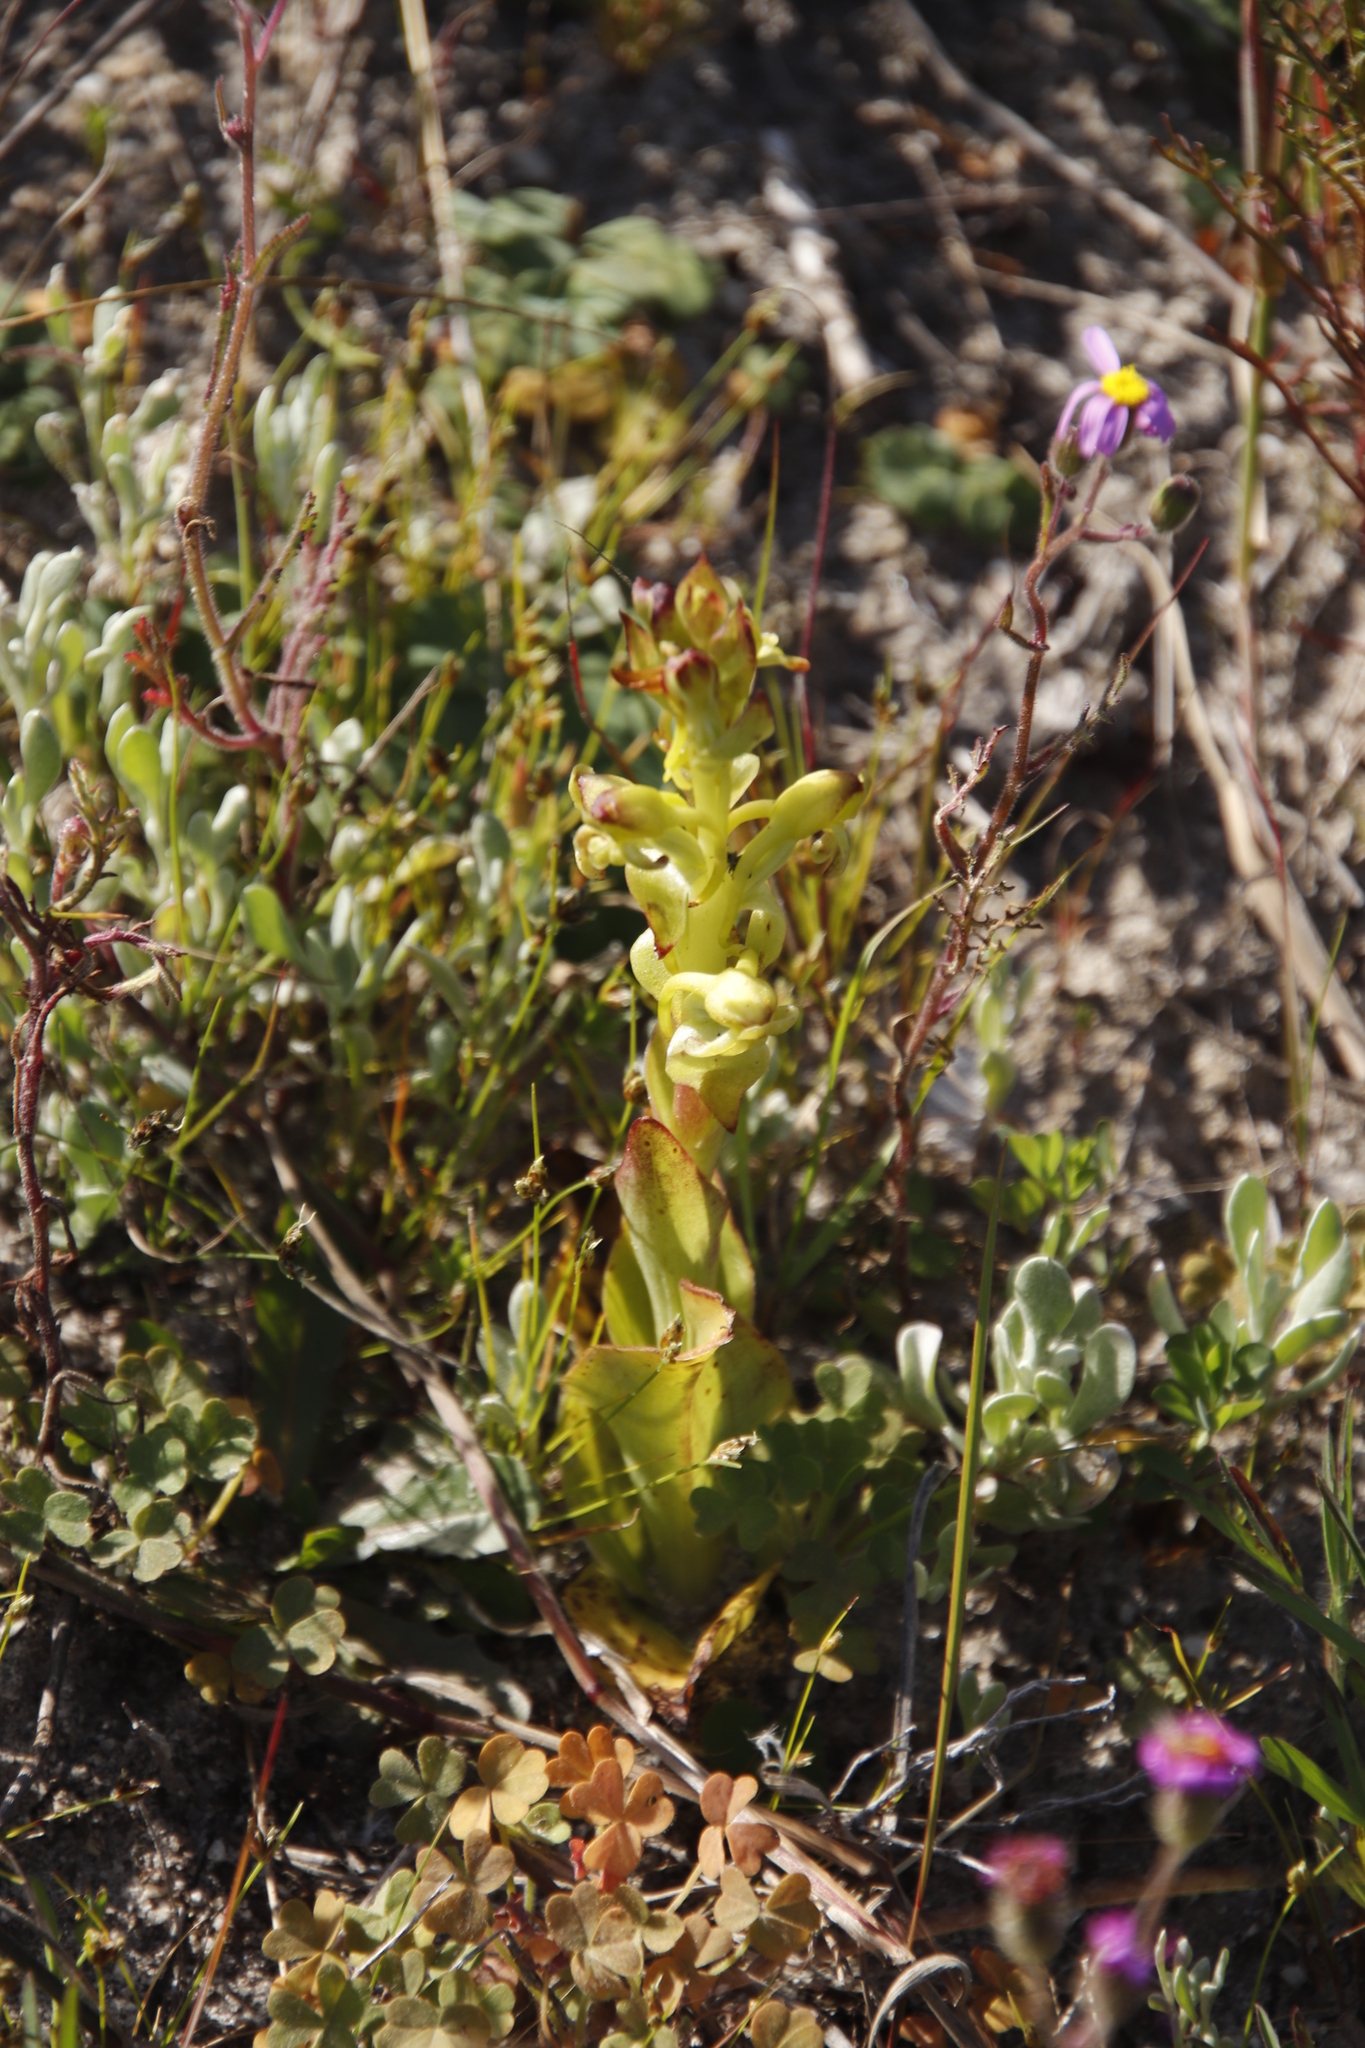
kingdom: Plantae
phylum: Tracheophyta
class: Liliopsida
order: Asparagales
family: Orchidaceae
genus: Satyrium
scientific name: Satyrium odorum
